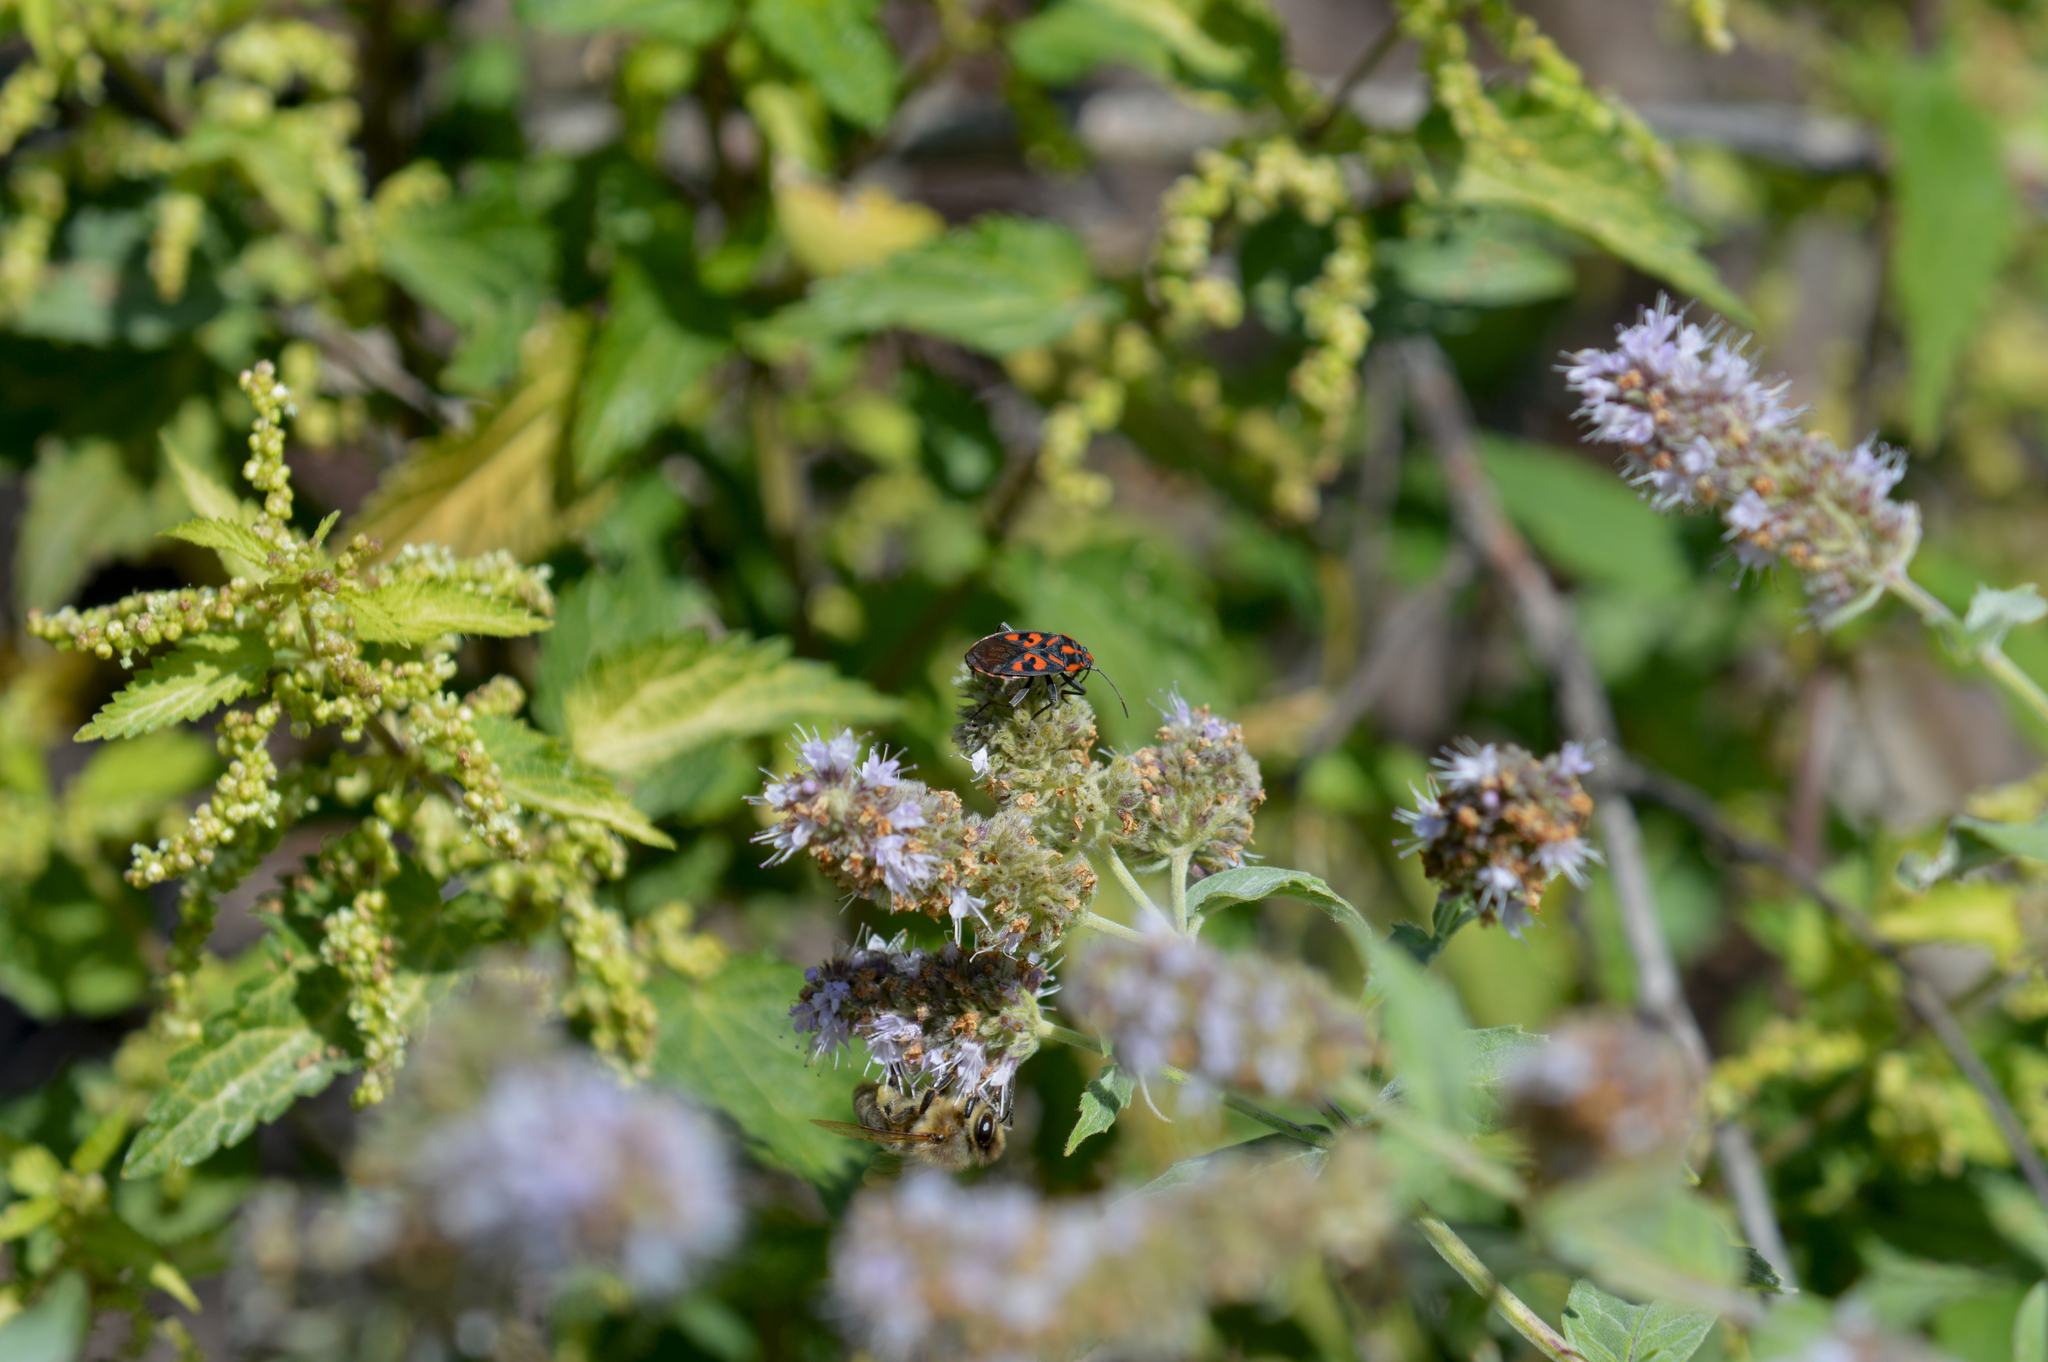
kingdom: Animalia
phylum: Arthropoda
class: Insecta
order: Hemiptera
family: Lygaeidae
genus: Spilostethus
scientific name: Spilostethus saxatilis
